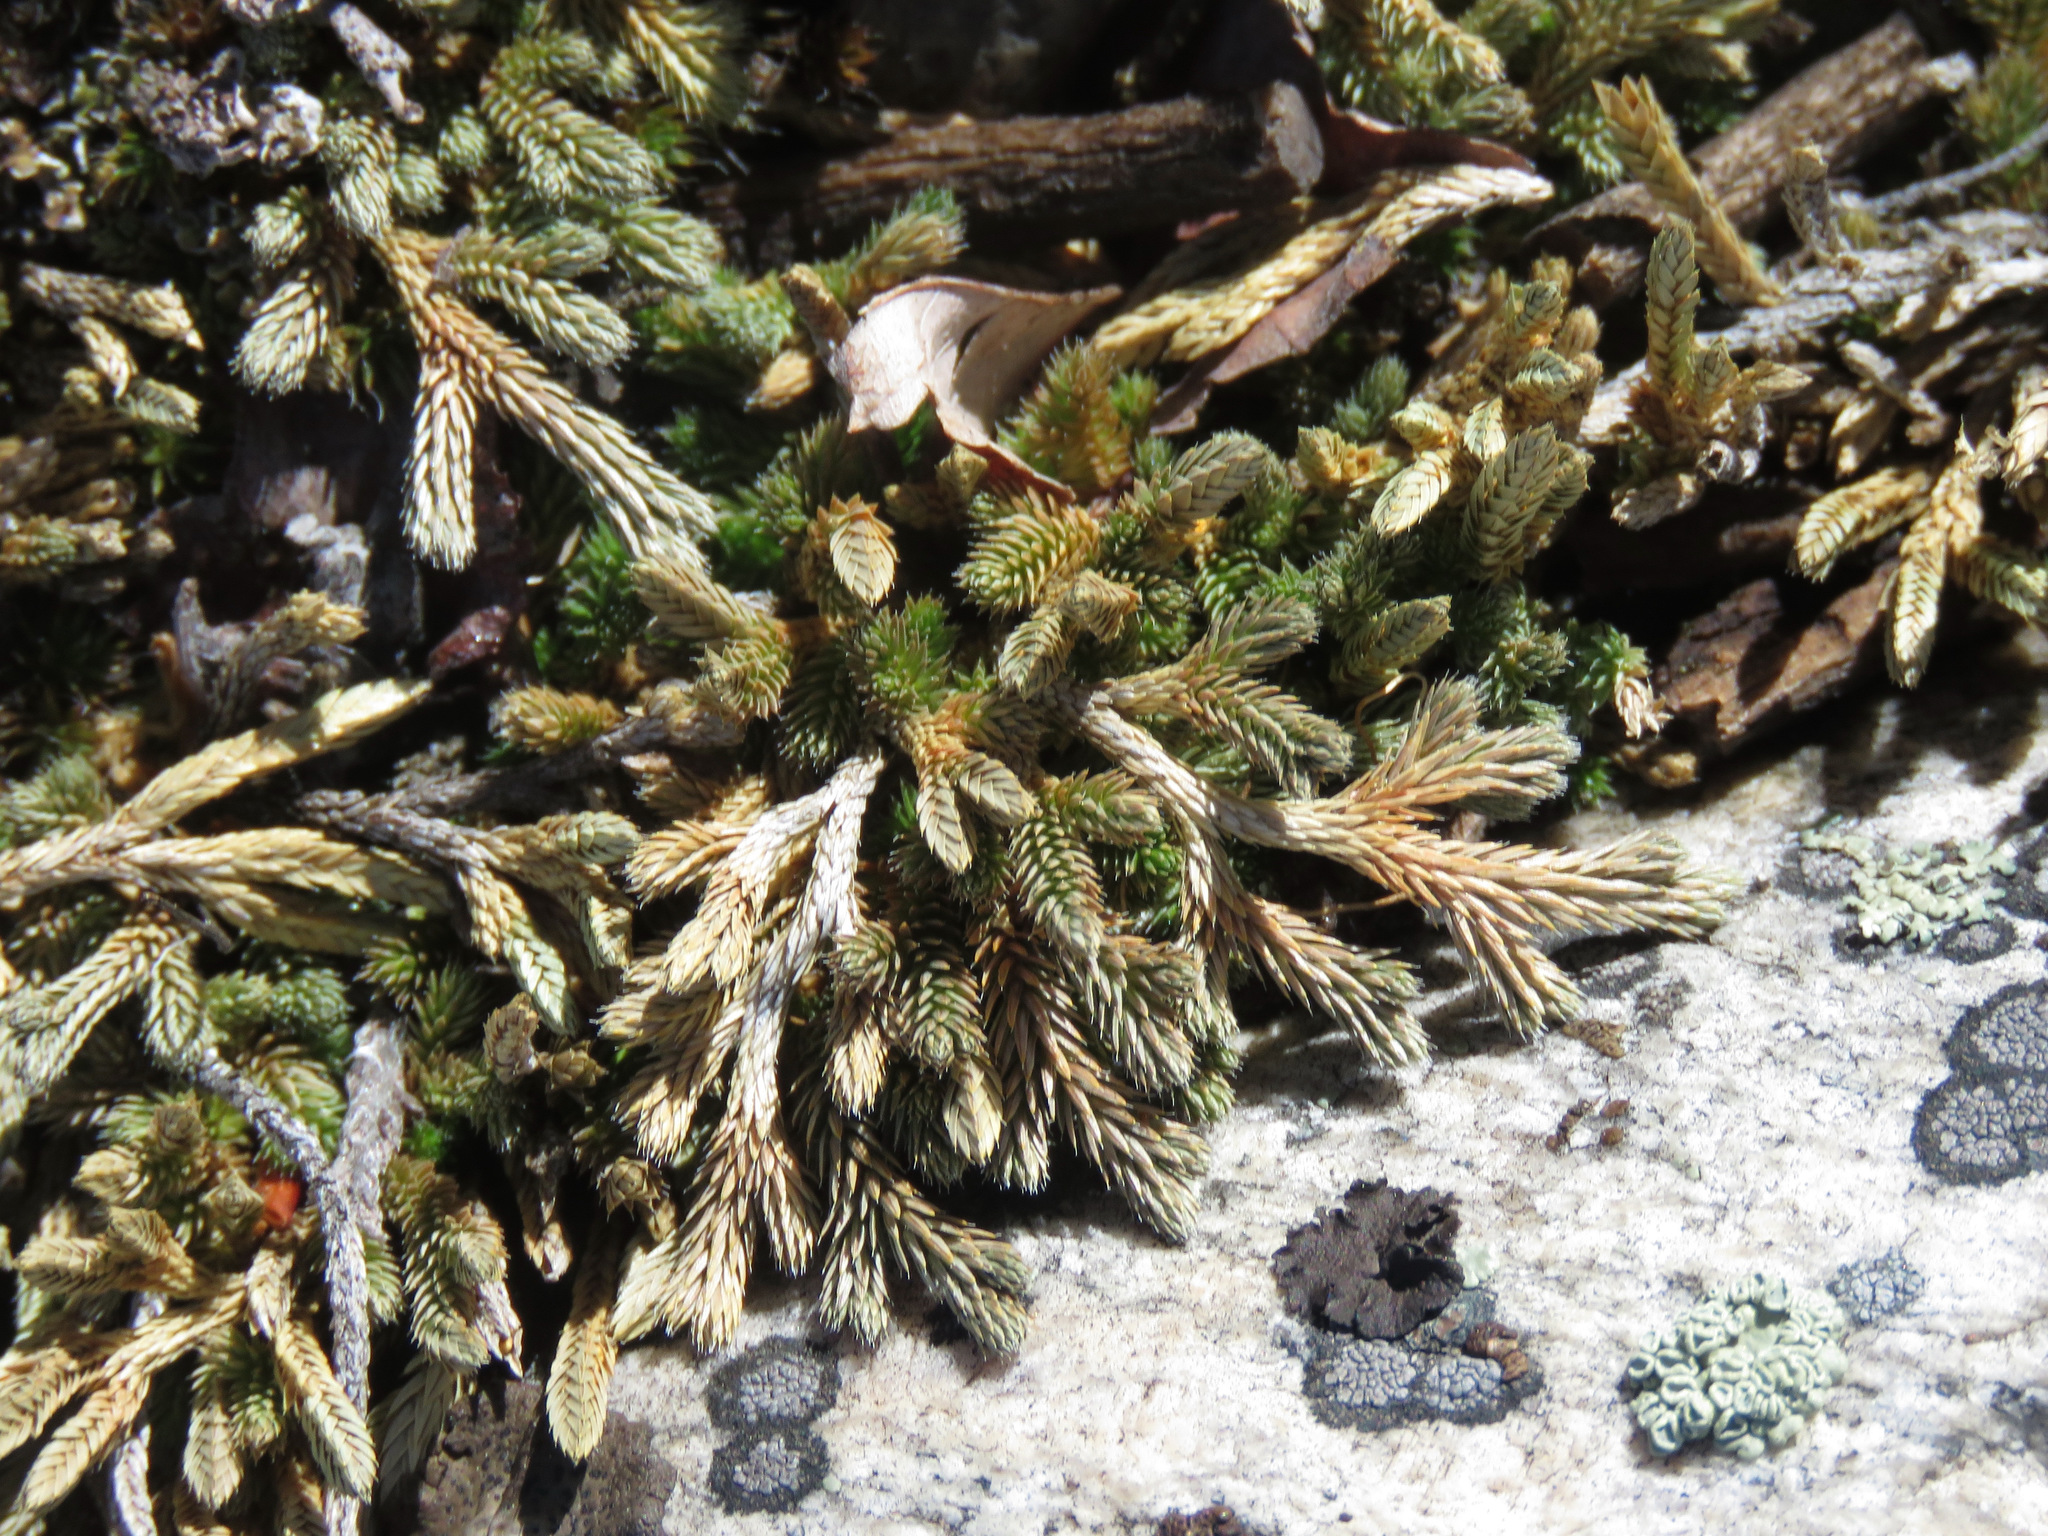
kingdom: Plantae
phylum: Tracheophyta
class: Lycopodiopsida
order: Selaginellales
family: Selaginellaceae
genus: Selaginella
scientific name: Selaginella wallacei
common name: Wallace's selaginella
